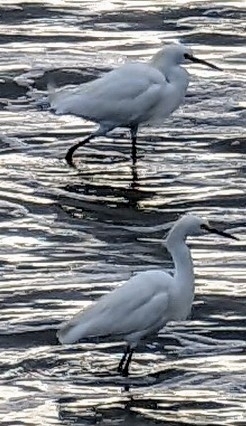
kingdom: Animalia
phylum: Chordata
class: Aves
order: Pelecaniformes
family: Ardeidae
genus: Egretta
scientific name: Egretta thula
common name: Snowy egret
